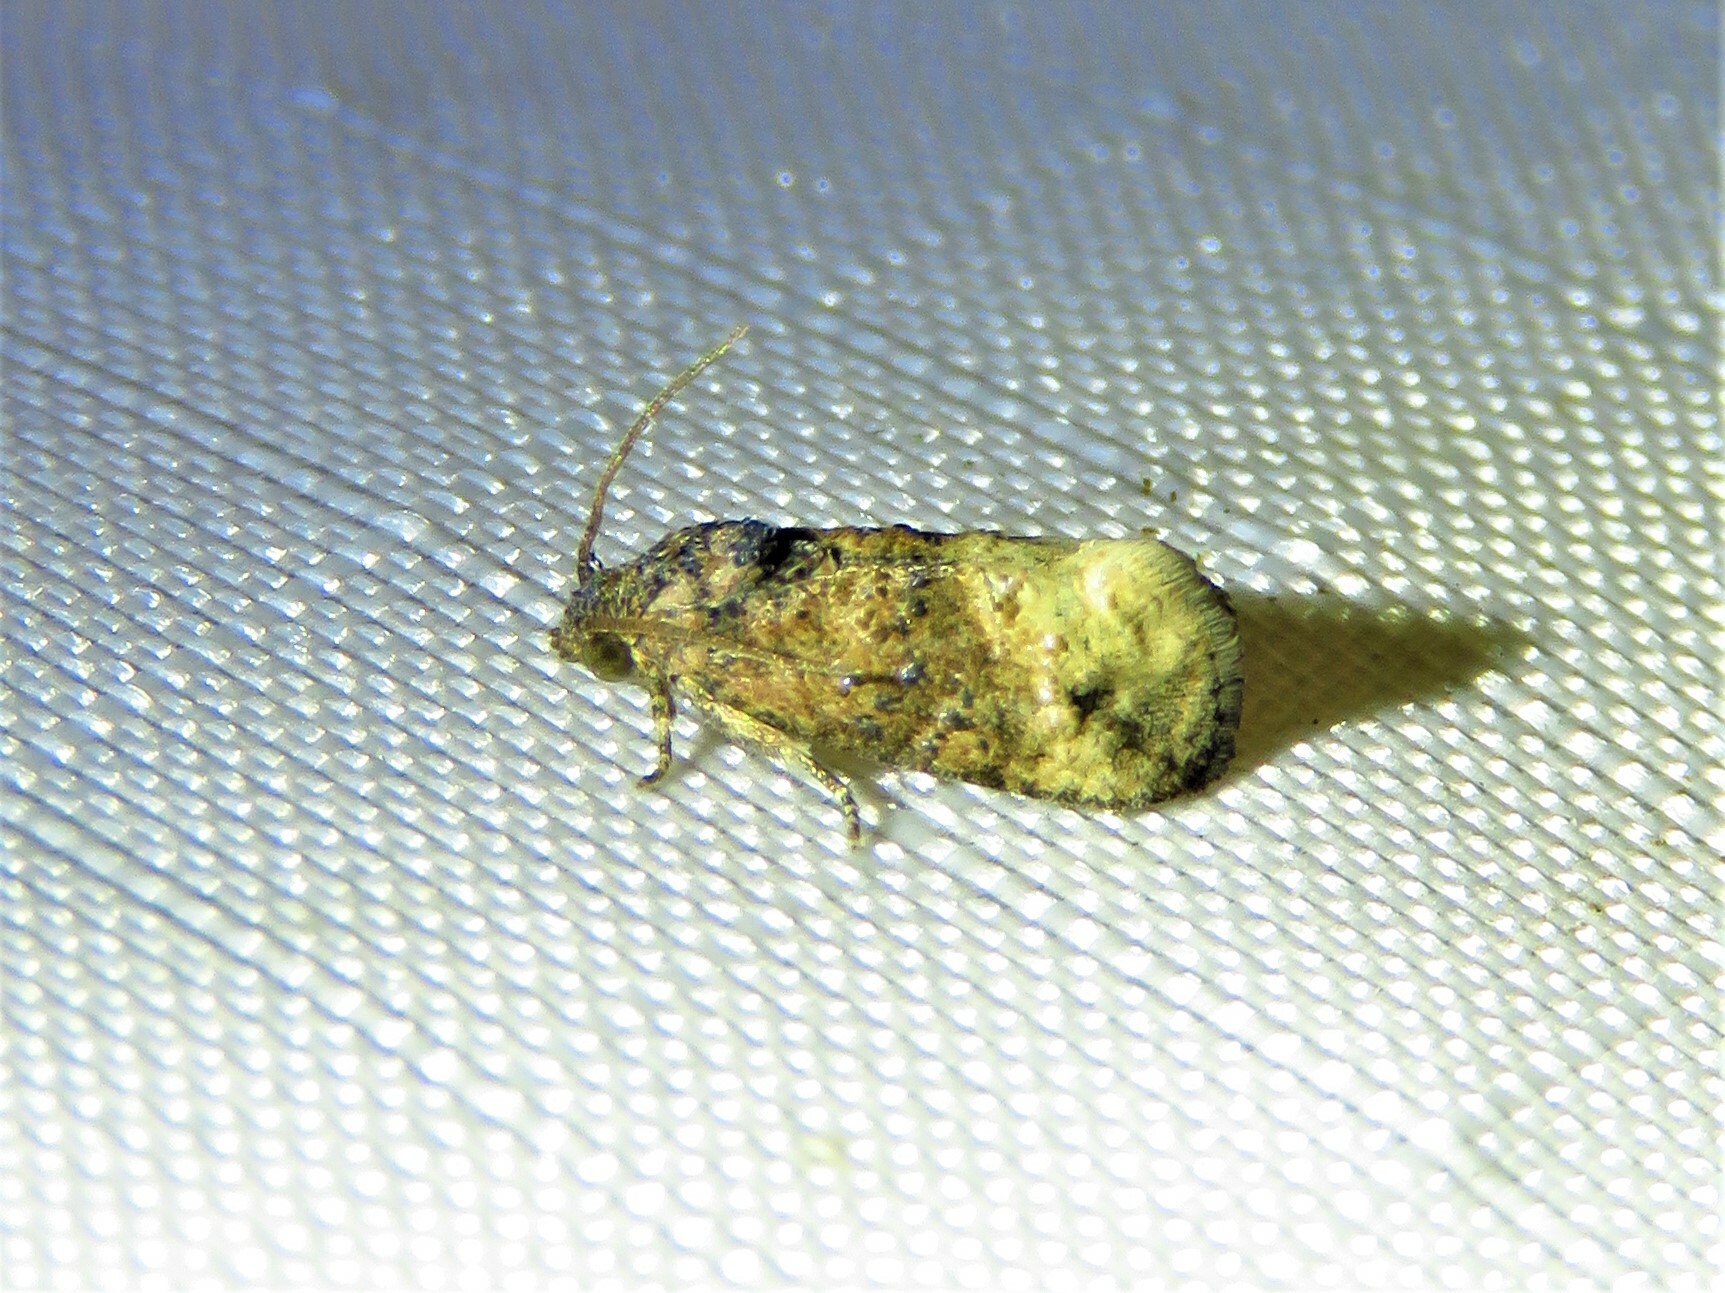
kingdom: Animalia
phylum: Arthropoda
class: Insecta
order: Lepidoptera
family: Tortricidae
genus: Ecdytolopha
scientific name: Ecdytolopha mana
